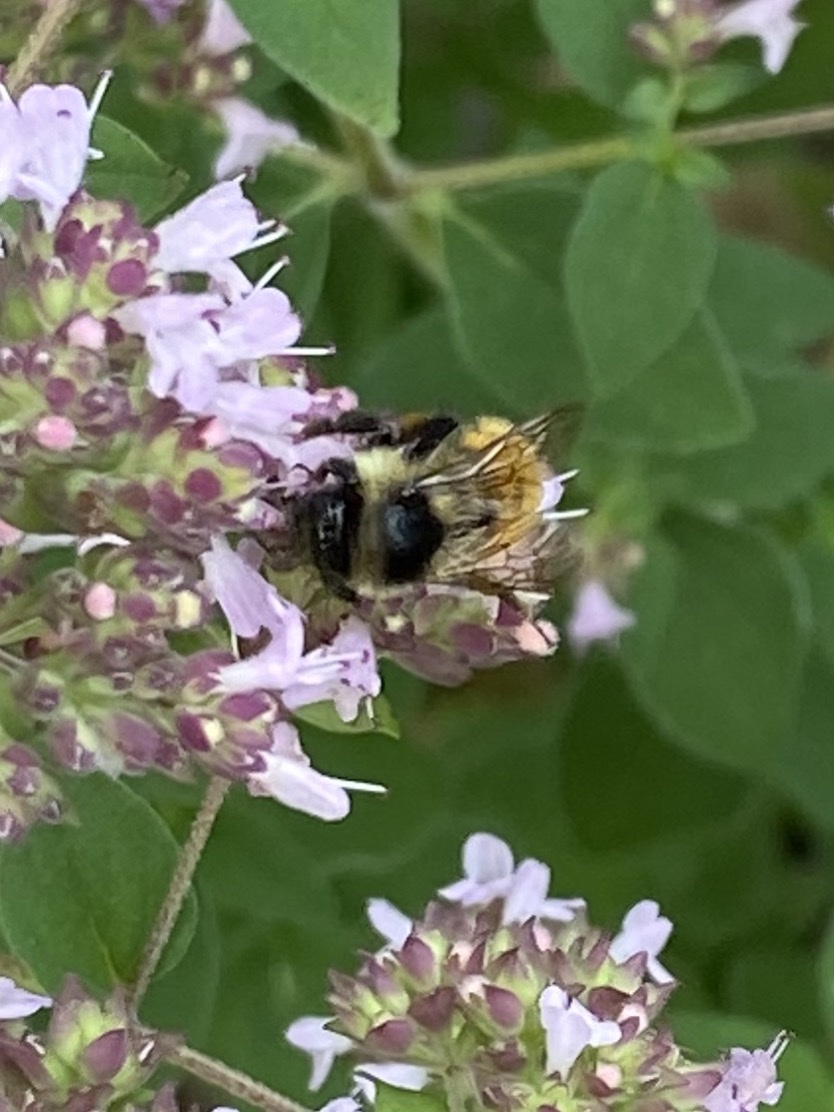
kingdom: Animalia
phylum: Arthropoda
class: Insecta
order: Hymenoptera
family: Apidae
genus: Bombus
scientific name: Bombus ternarius
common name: Tri-colored bumble bee
